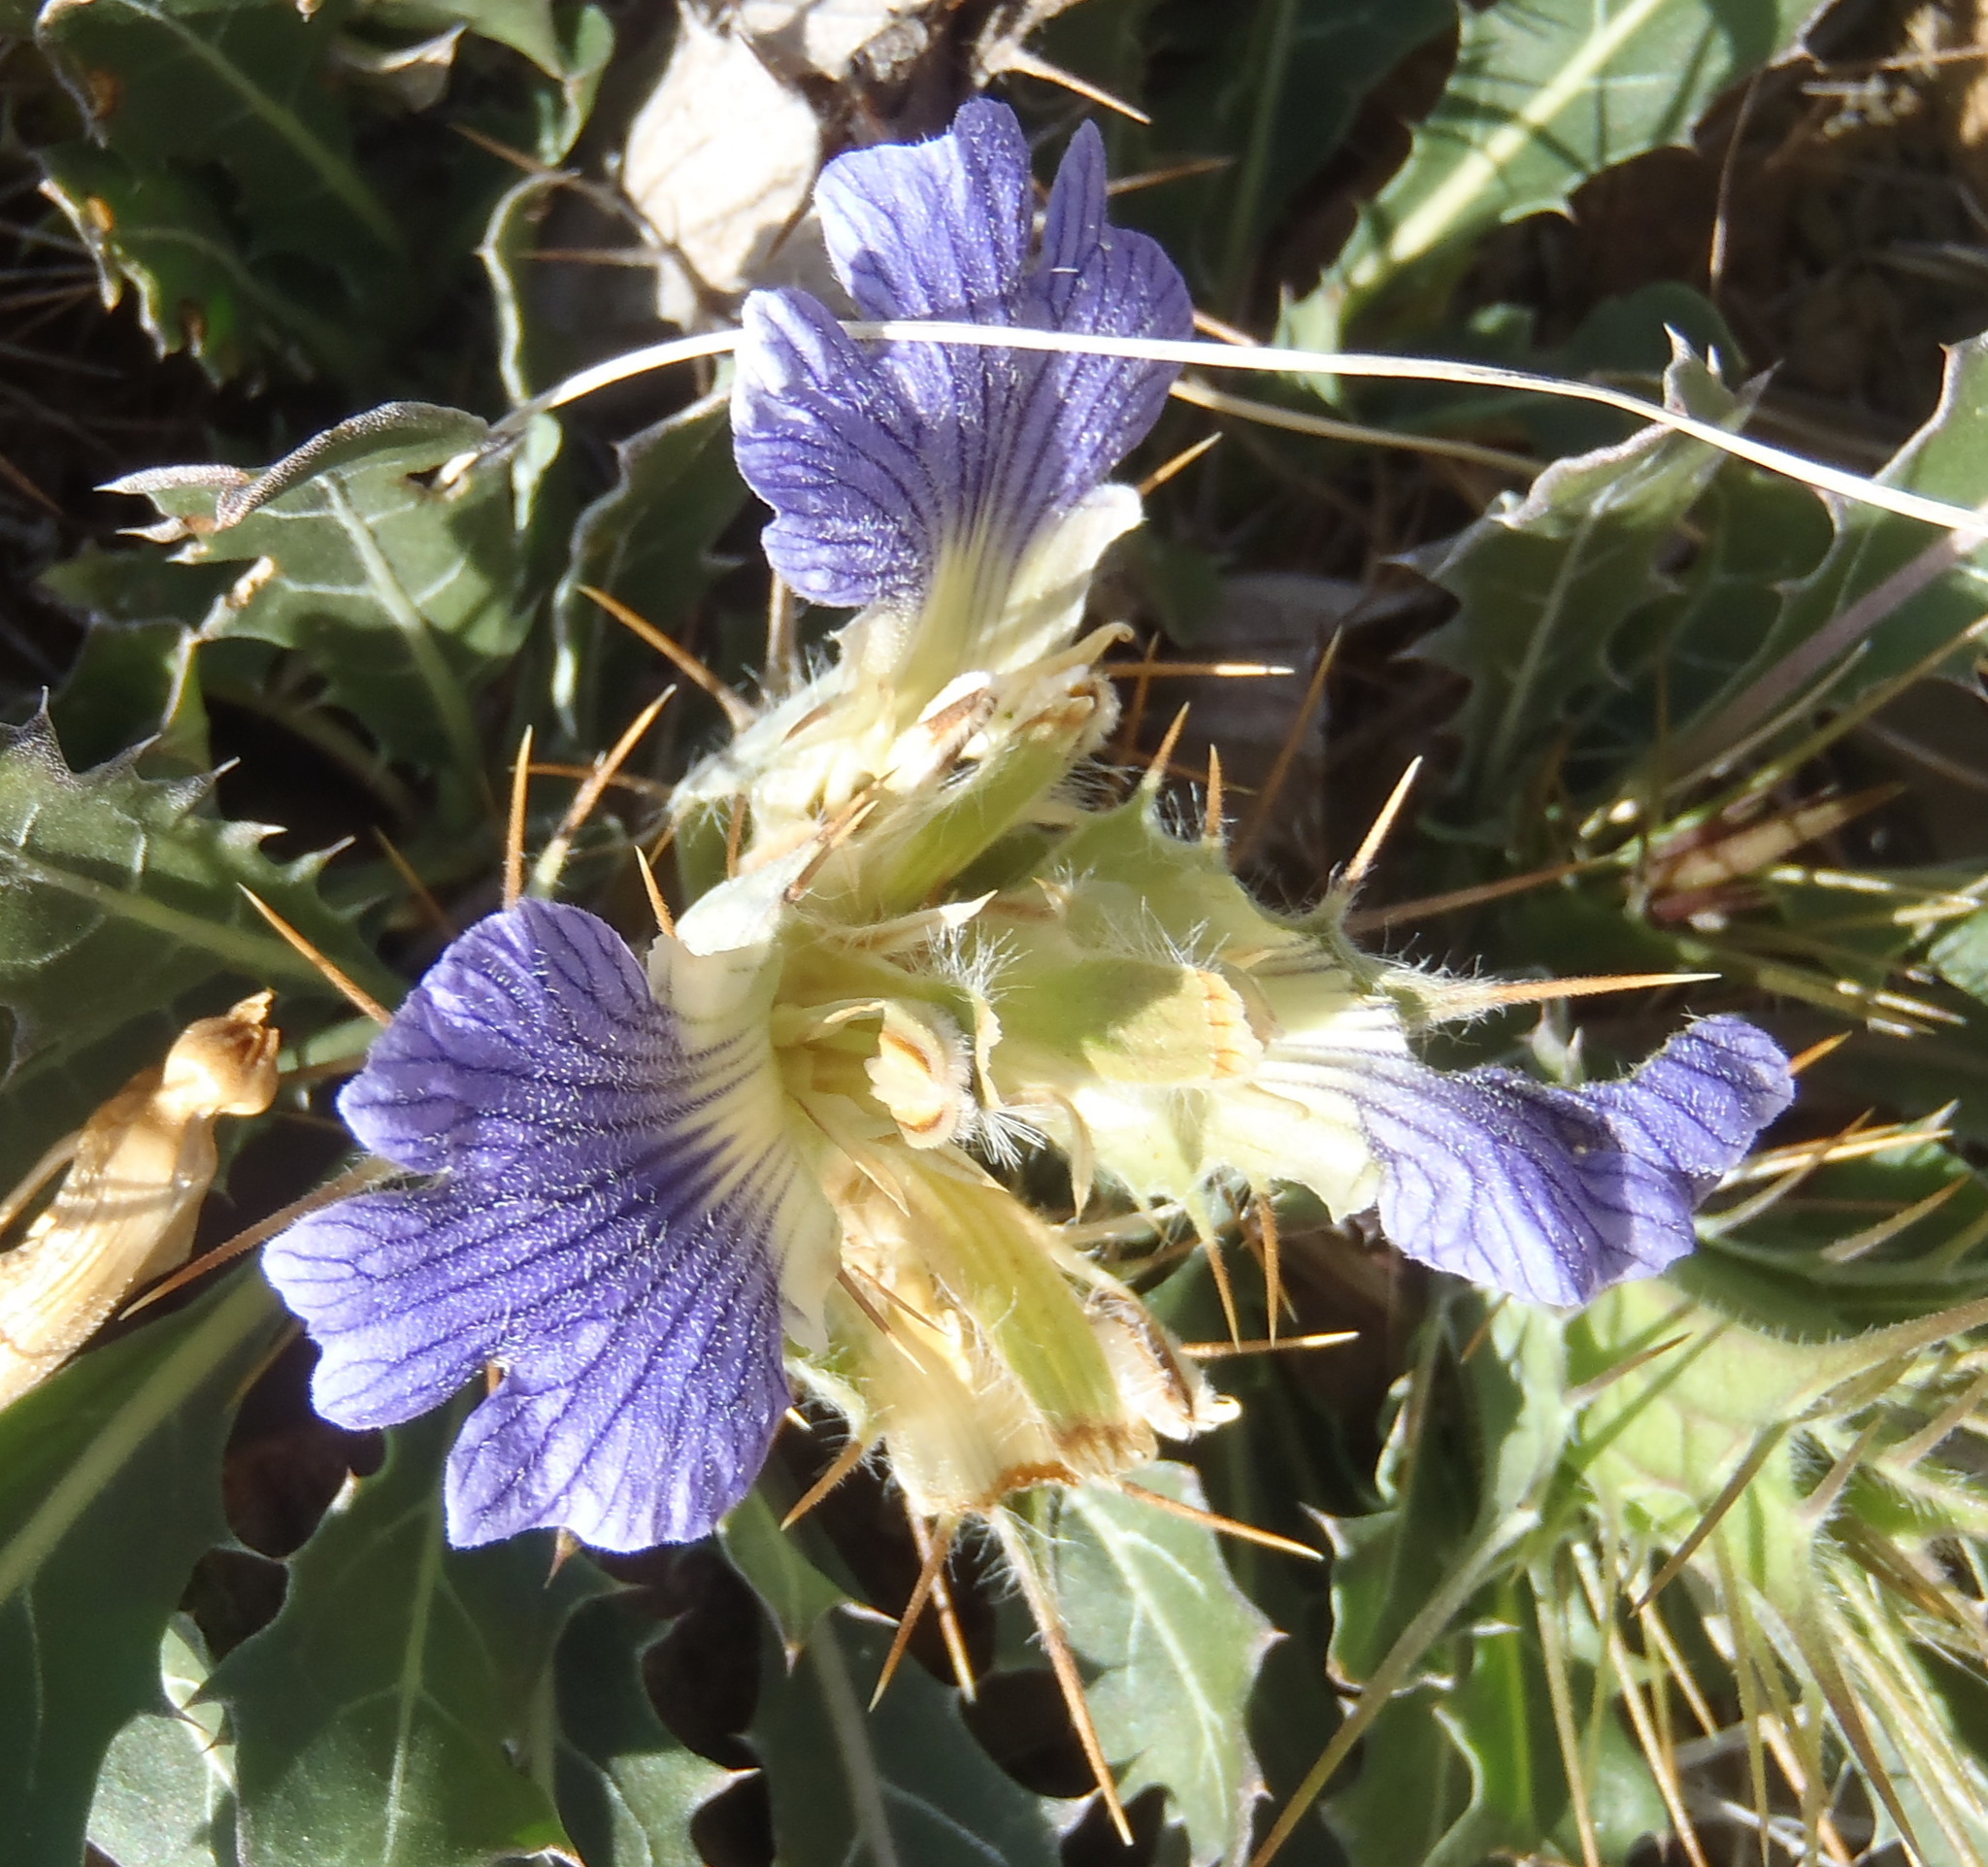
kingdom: Plantae
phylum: Tracheophyta
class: Magnoliopsida
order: Lamiales
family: Acanthaceae
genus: Blepharis
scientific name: Blepharis mitrata
